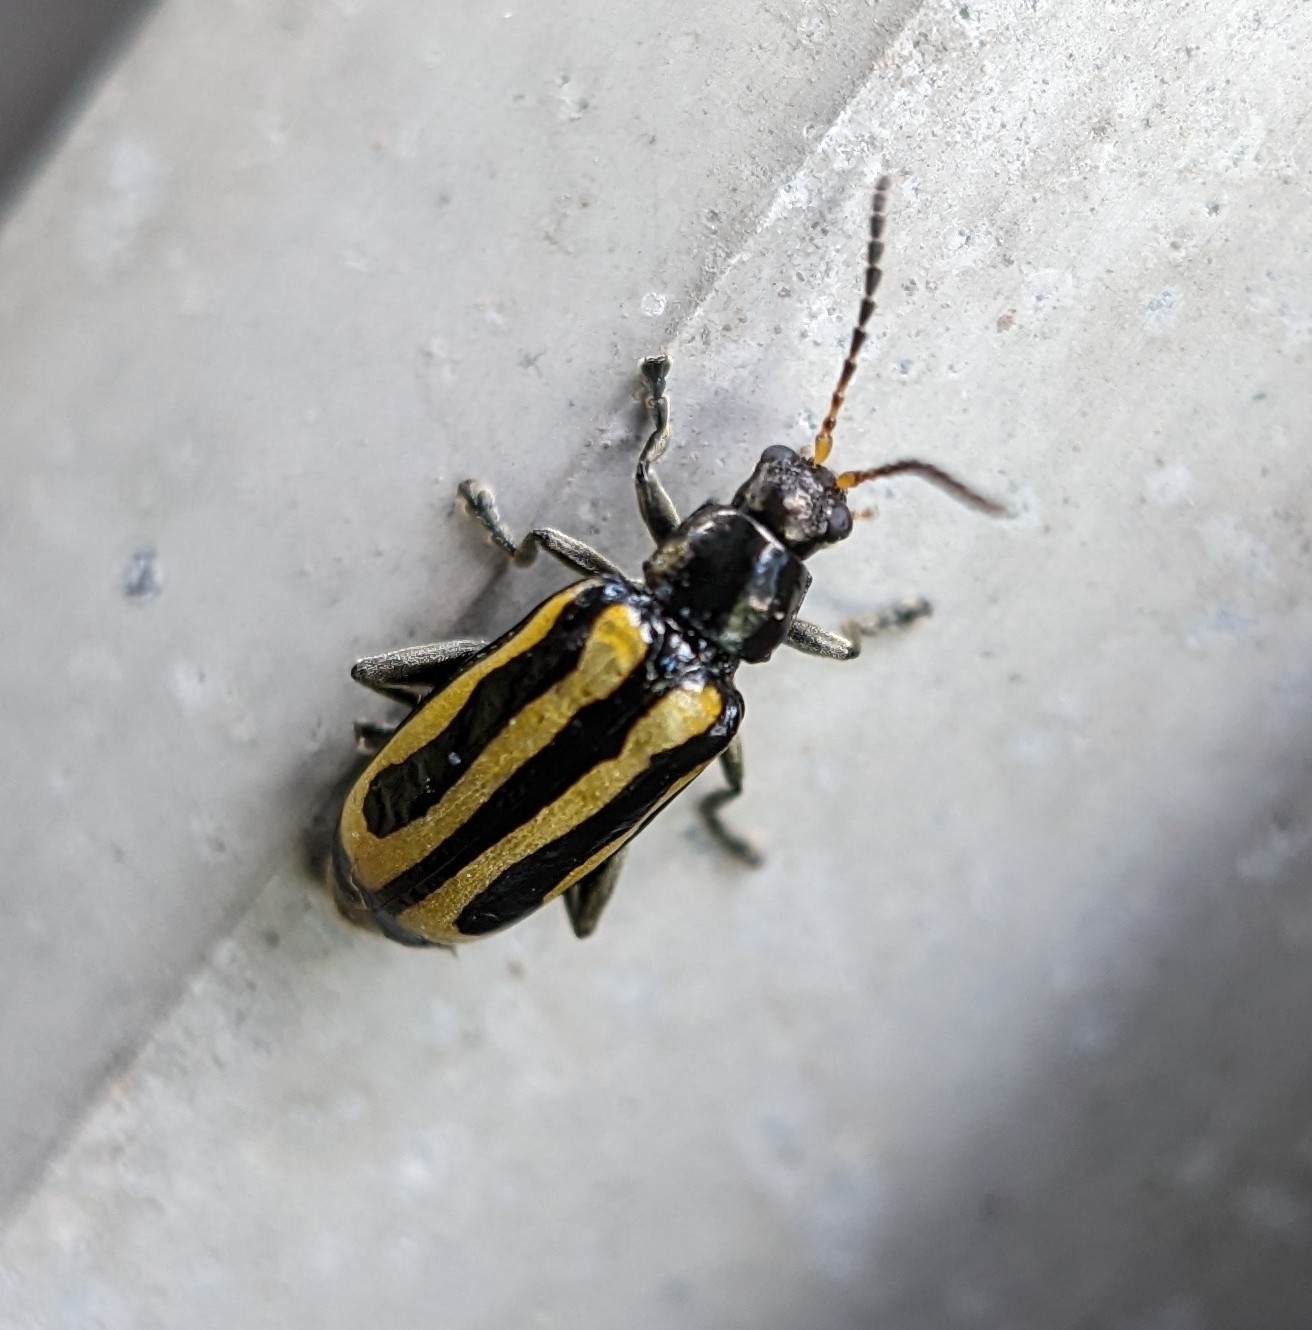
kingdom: Animalia
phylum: Arthropoda
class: Insecta
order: Coleoptera
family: Chrysomelidae
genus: Agasicles
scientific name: Agasicles hygrophila
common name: Alligatorweed flea beetle
